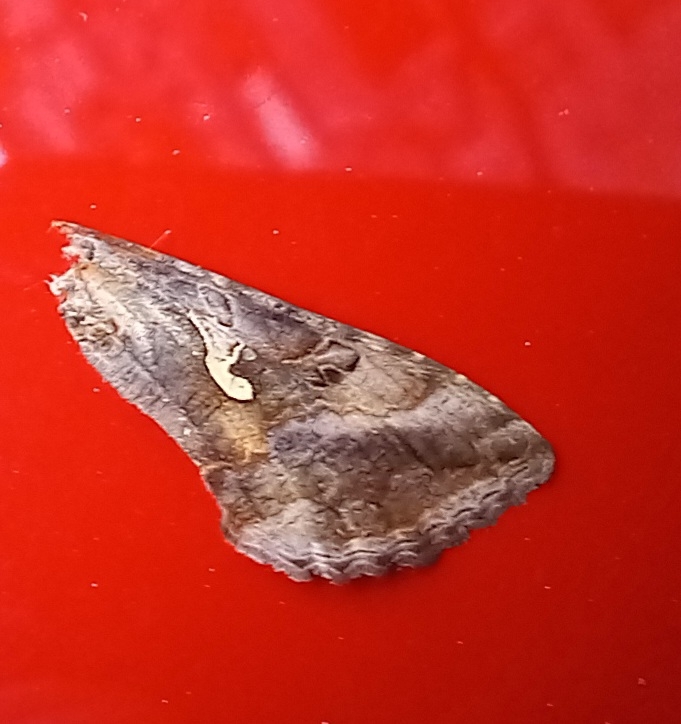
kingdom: Animalia
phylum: Arthropoda
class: Insecta
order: Lepidoptera
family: Noctuidae
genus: Autographa
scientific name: Autographa gamma
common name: Silver y
